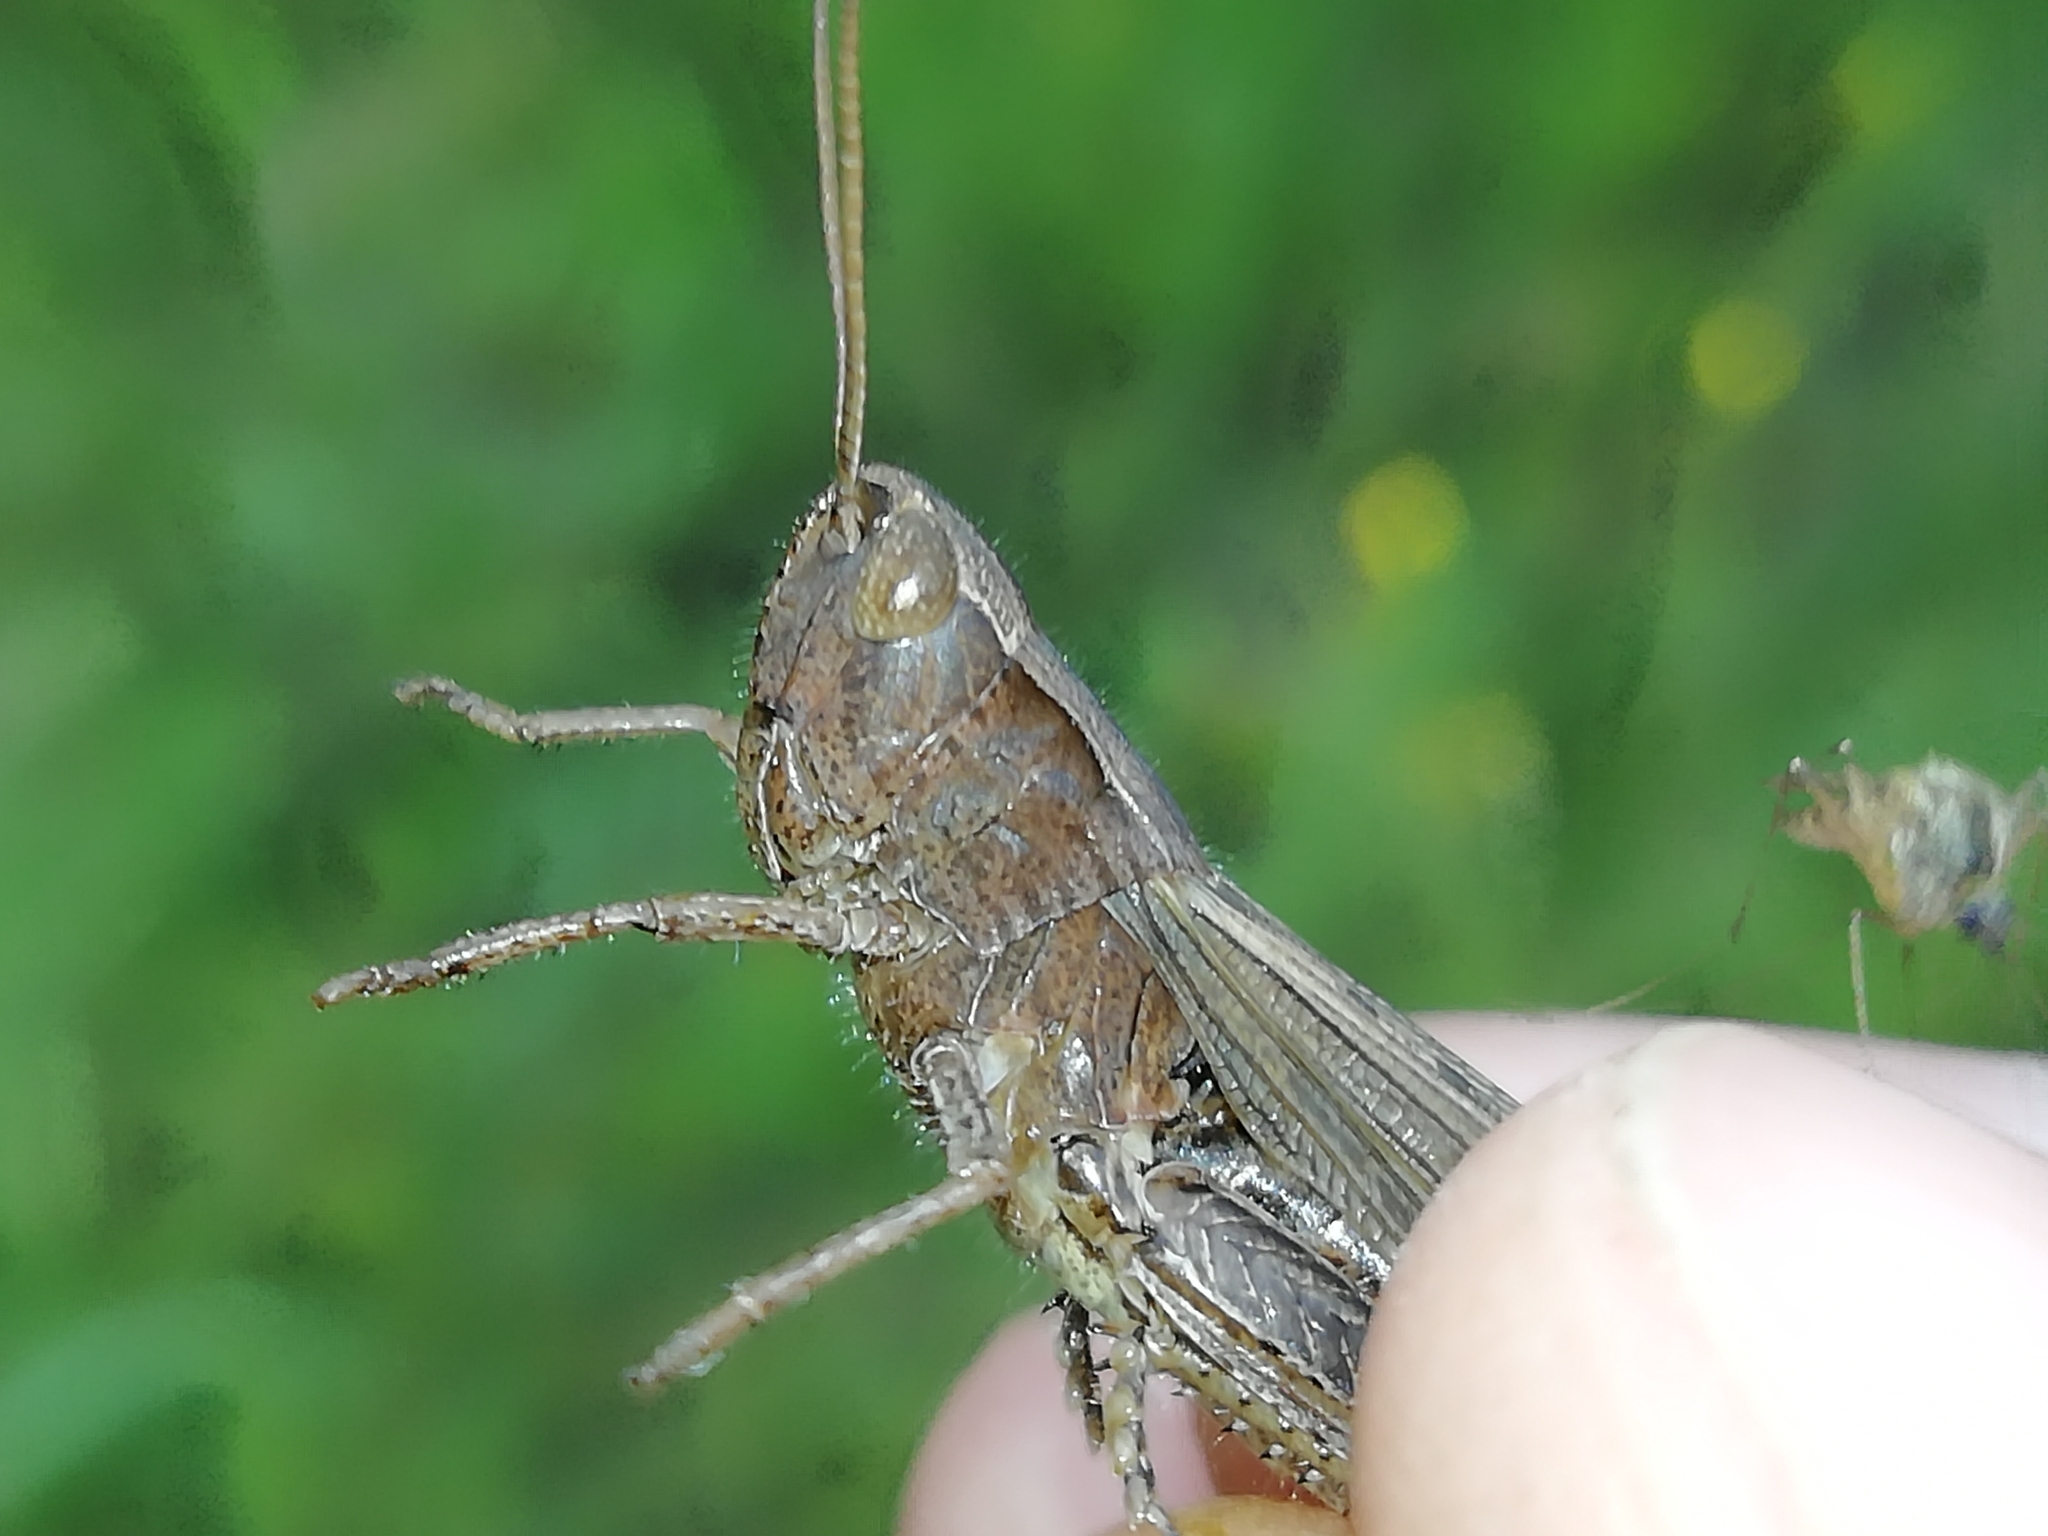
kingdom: Animalia
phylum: Arthropoda
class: Insecta
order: Orthoptera
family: Acrididae
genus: Chorthippus
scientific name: Chorthippus dorsatus
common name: Steppe grasshopper
